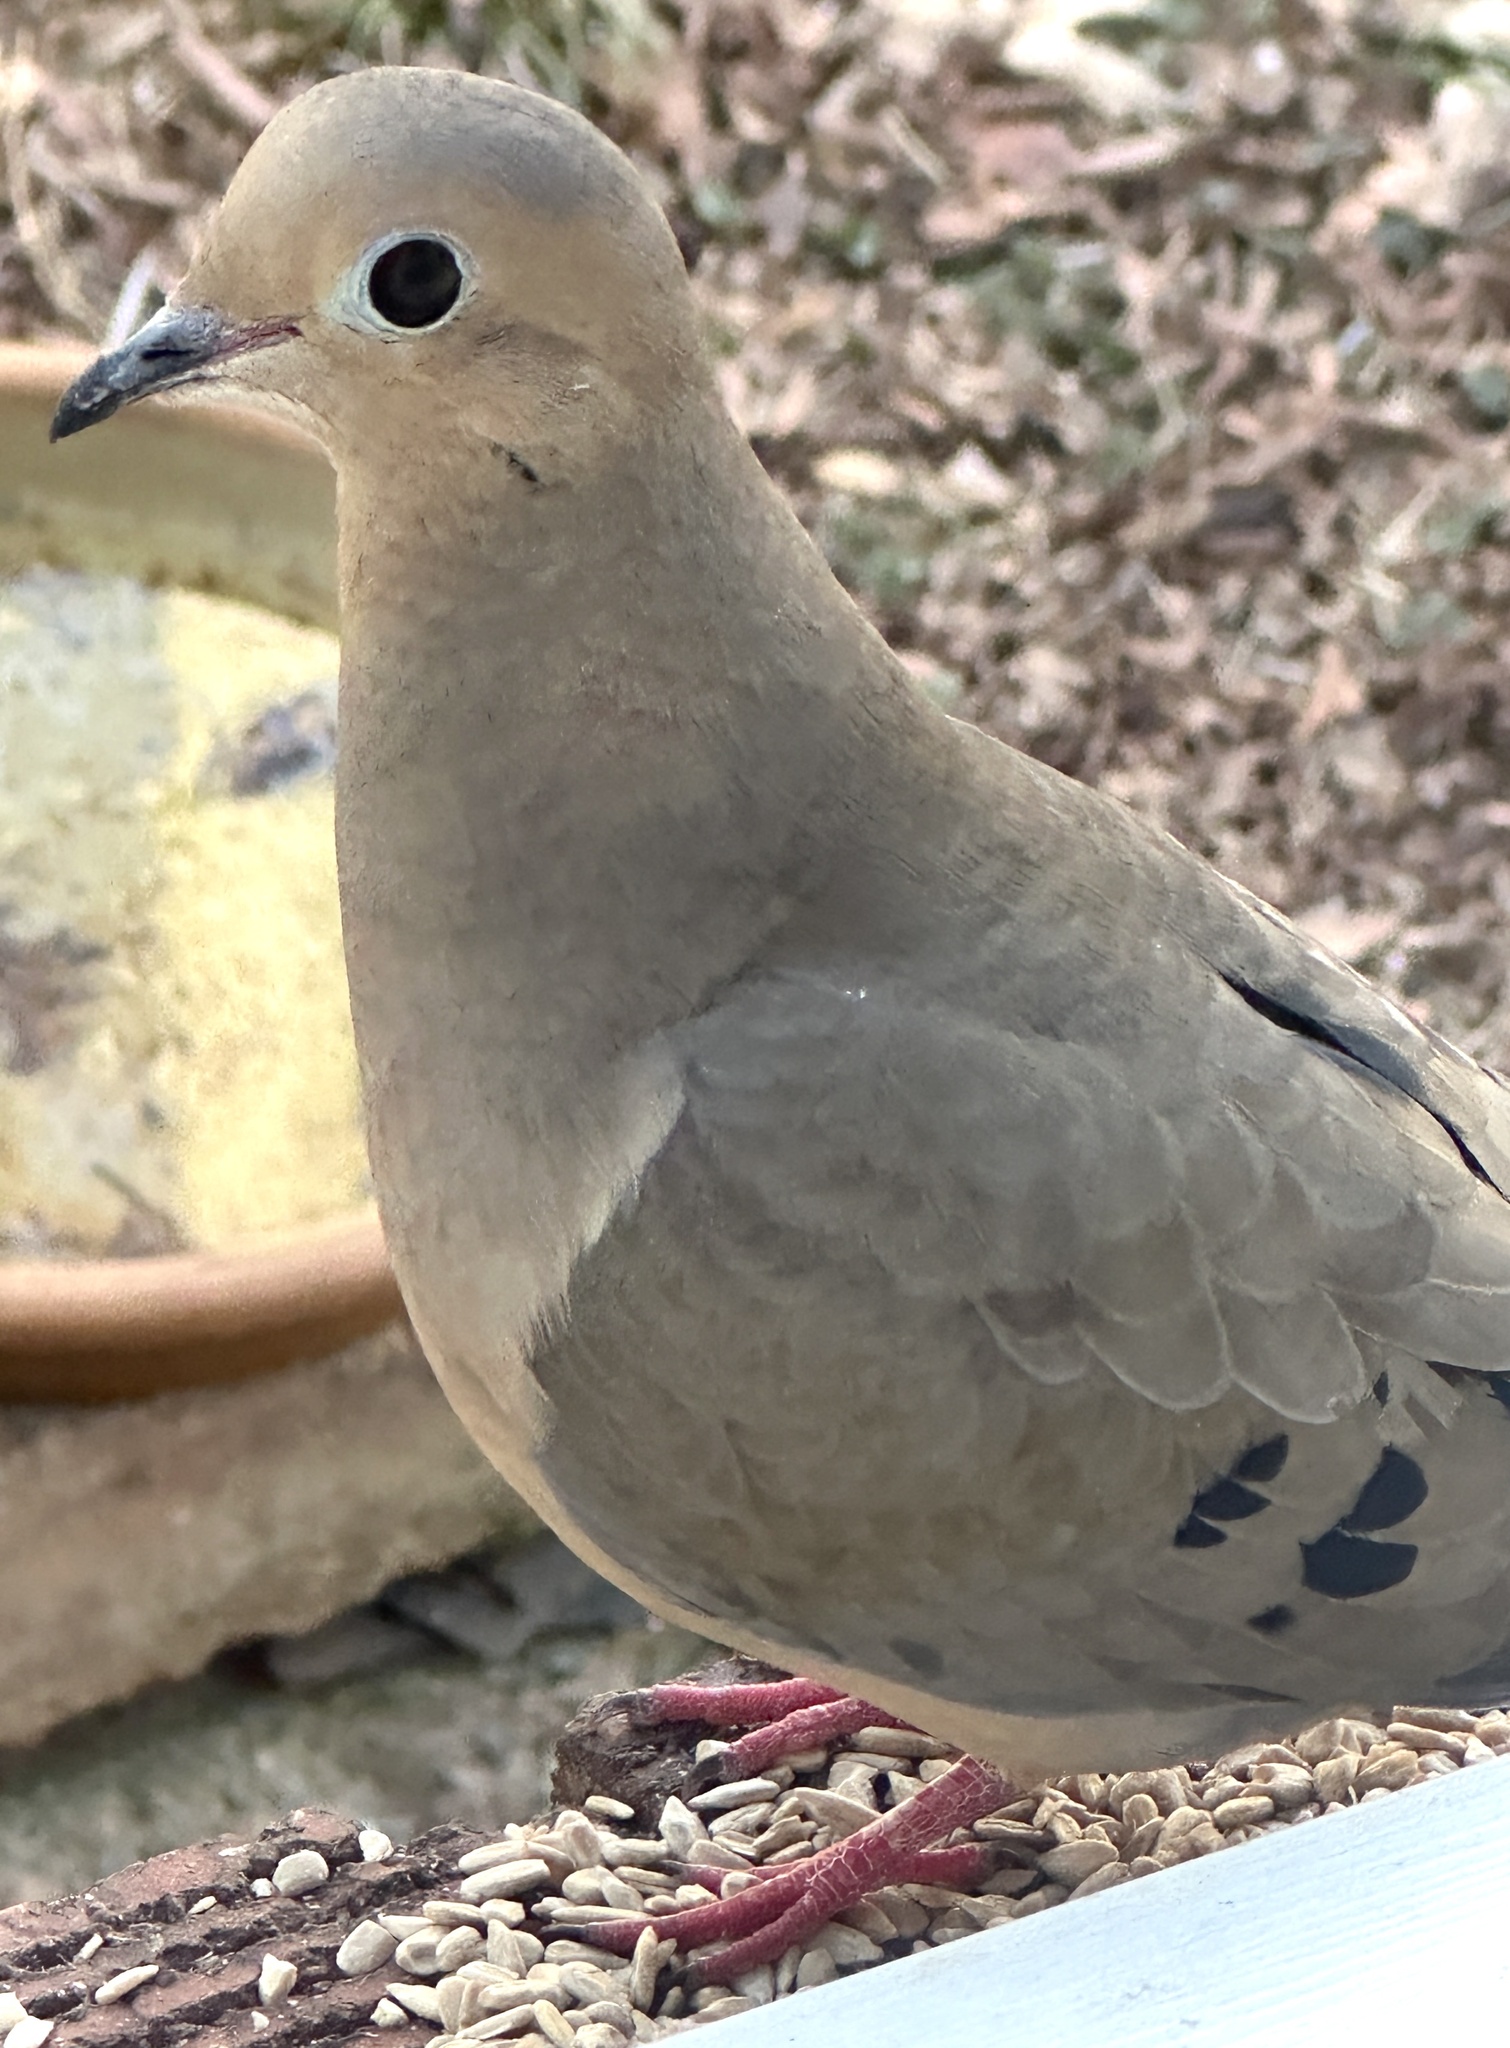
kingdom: Animalia
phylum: Chordata
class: Aves
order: Columbiformes
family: Columbidae
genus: Zenaida
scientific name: Zenaida macroura
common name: Mourning dove
